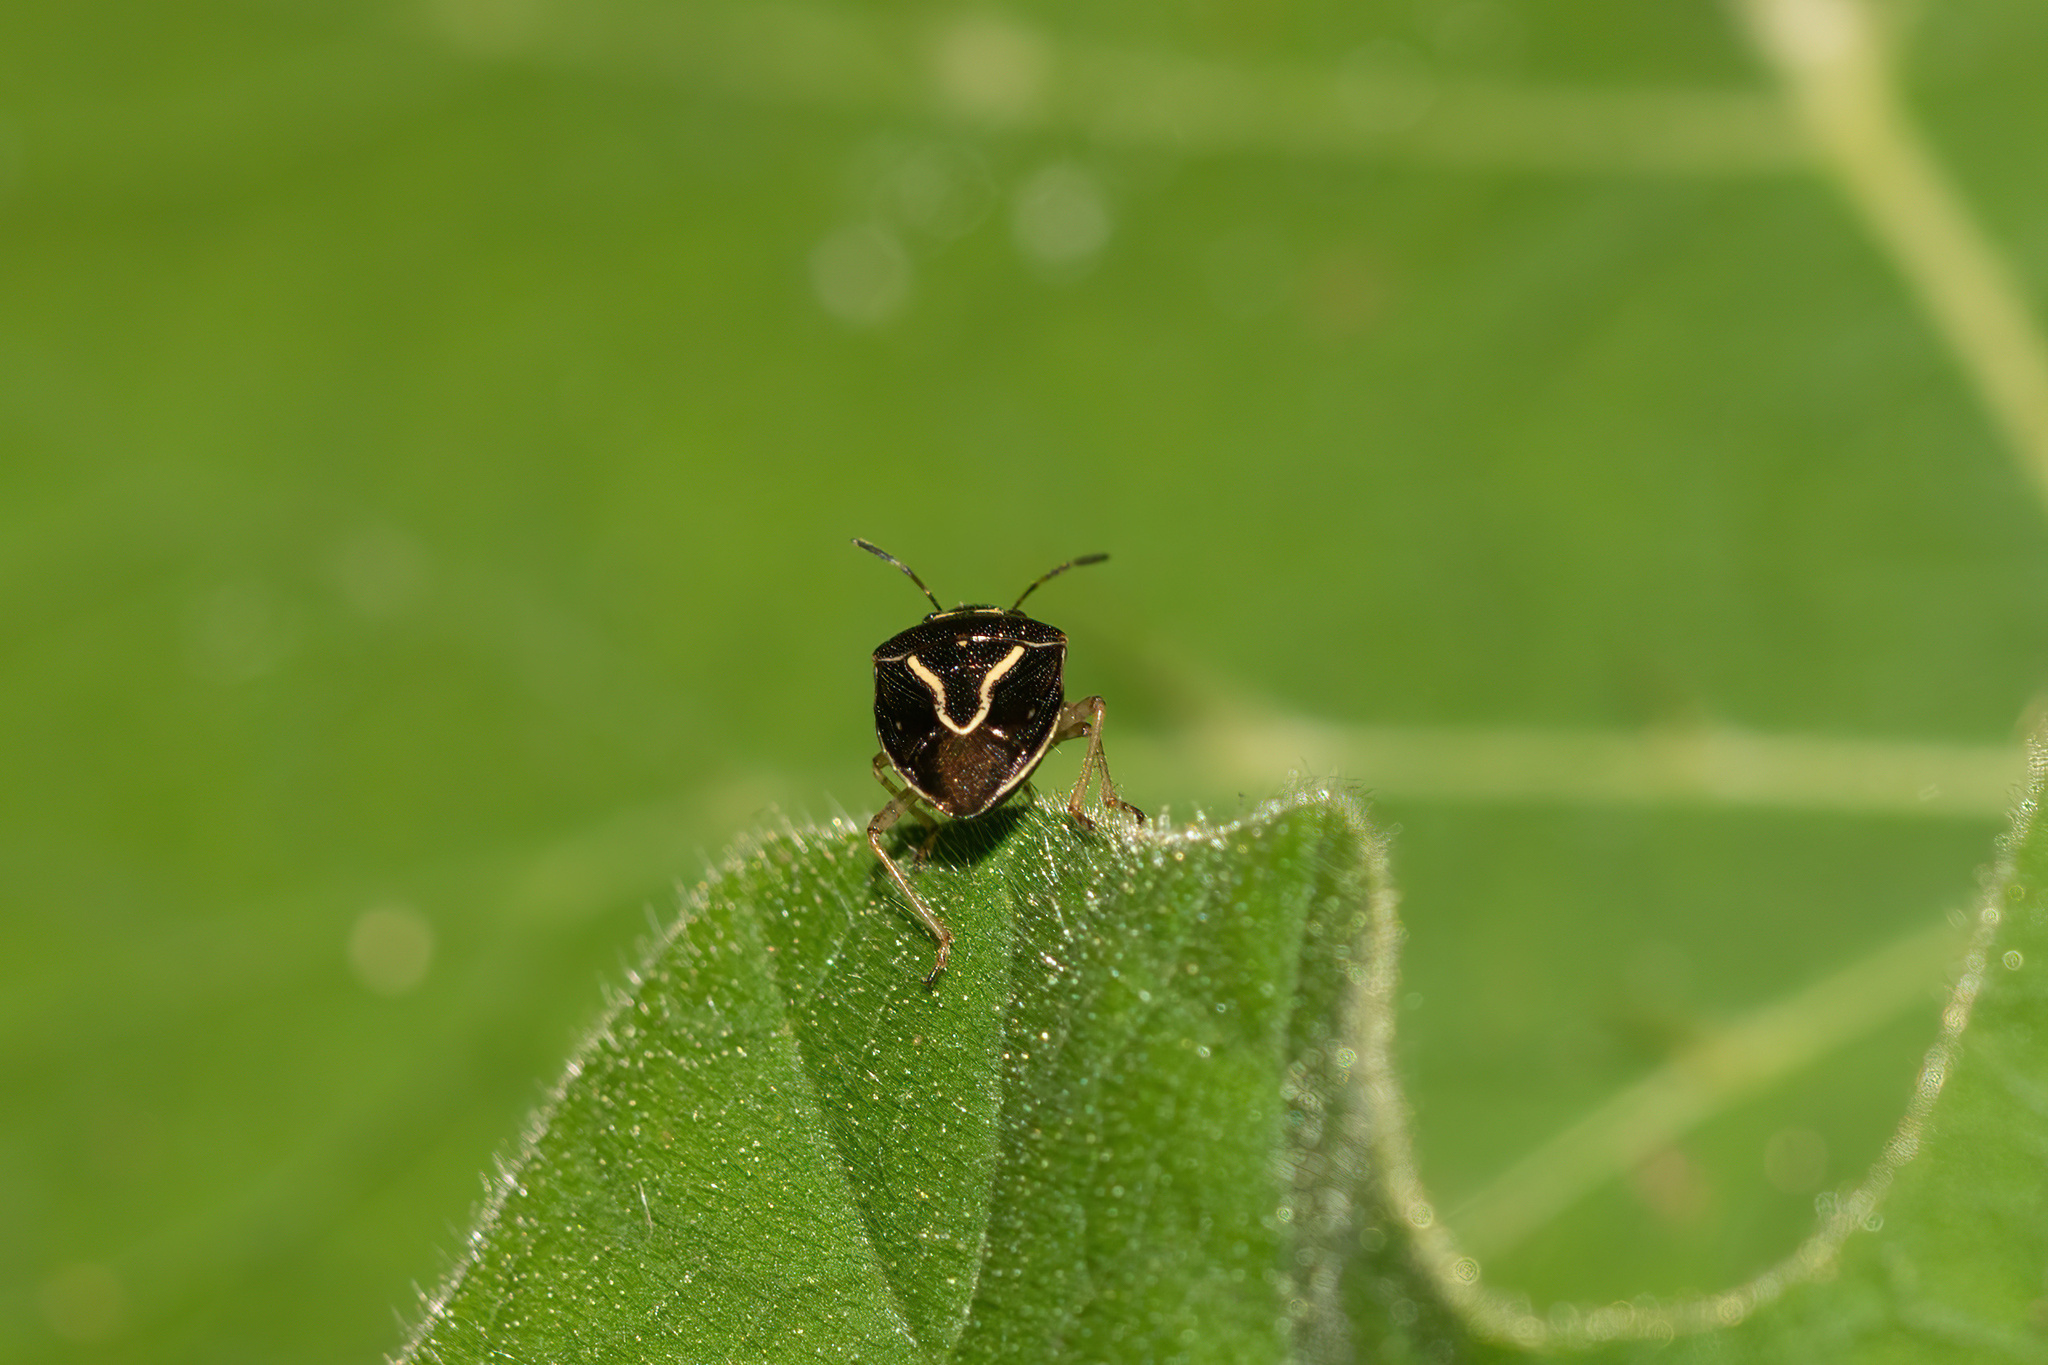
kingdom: Animalia
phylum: Arthropoda
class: Insecta
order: Hemiptera
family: Pentatomidae
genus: Mormidea
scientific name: Mormidea lugens
